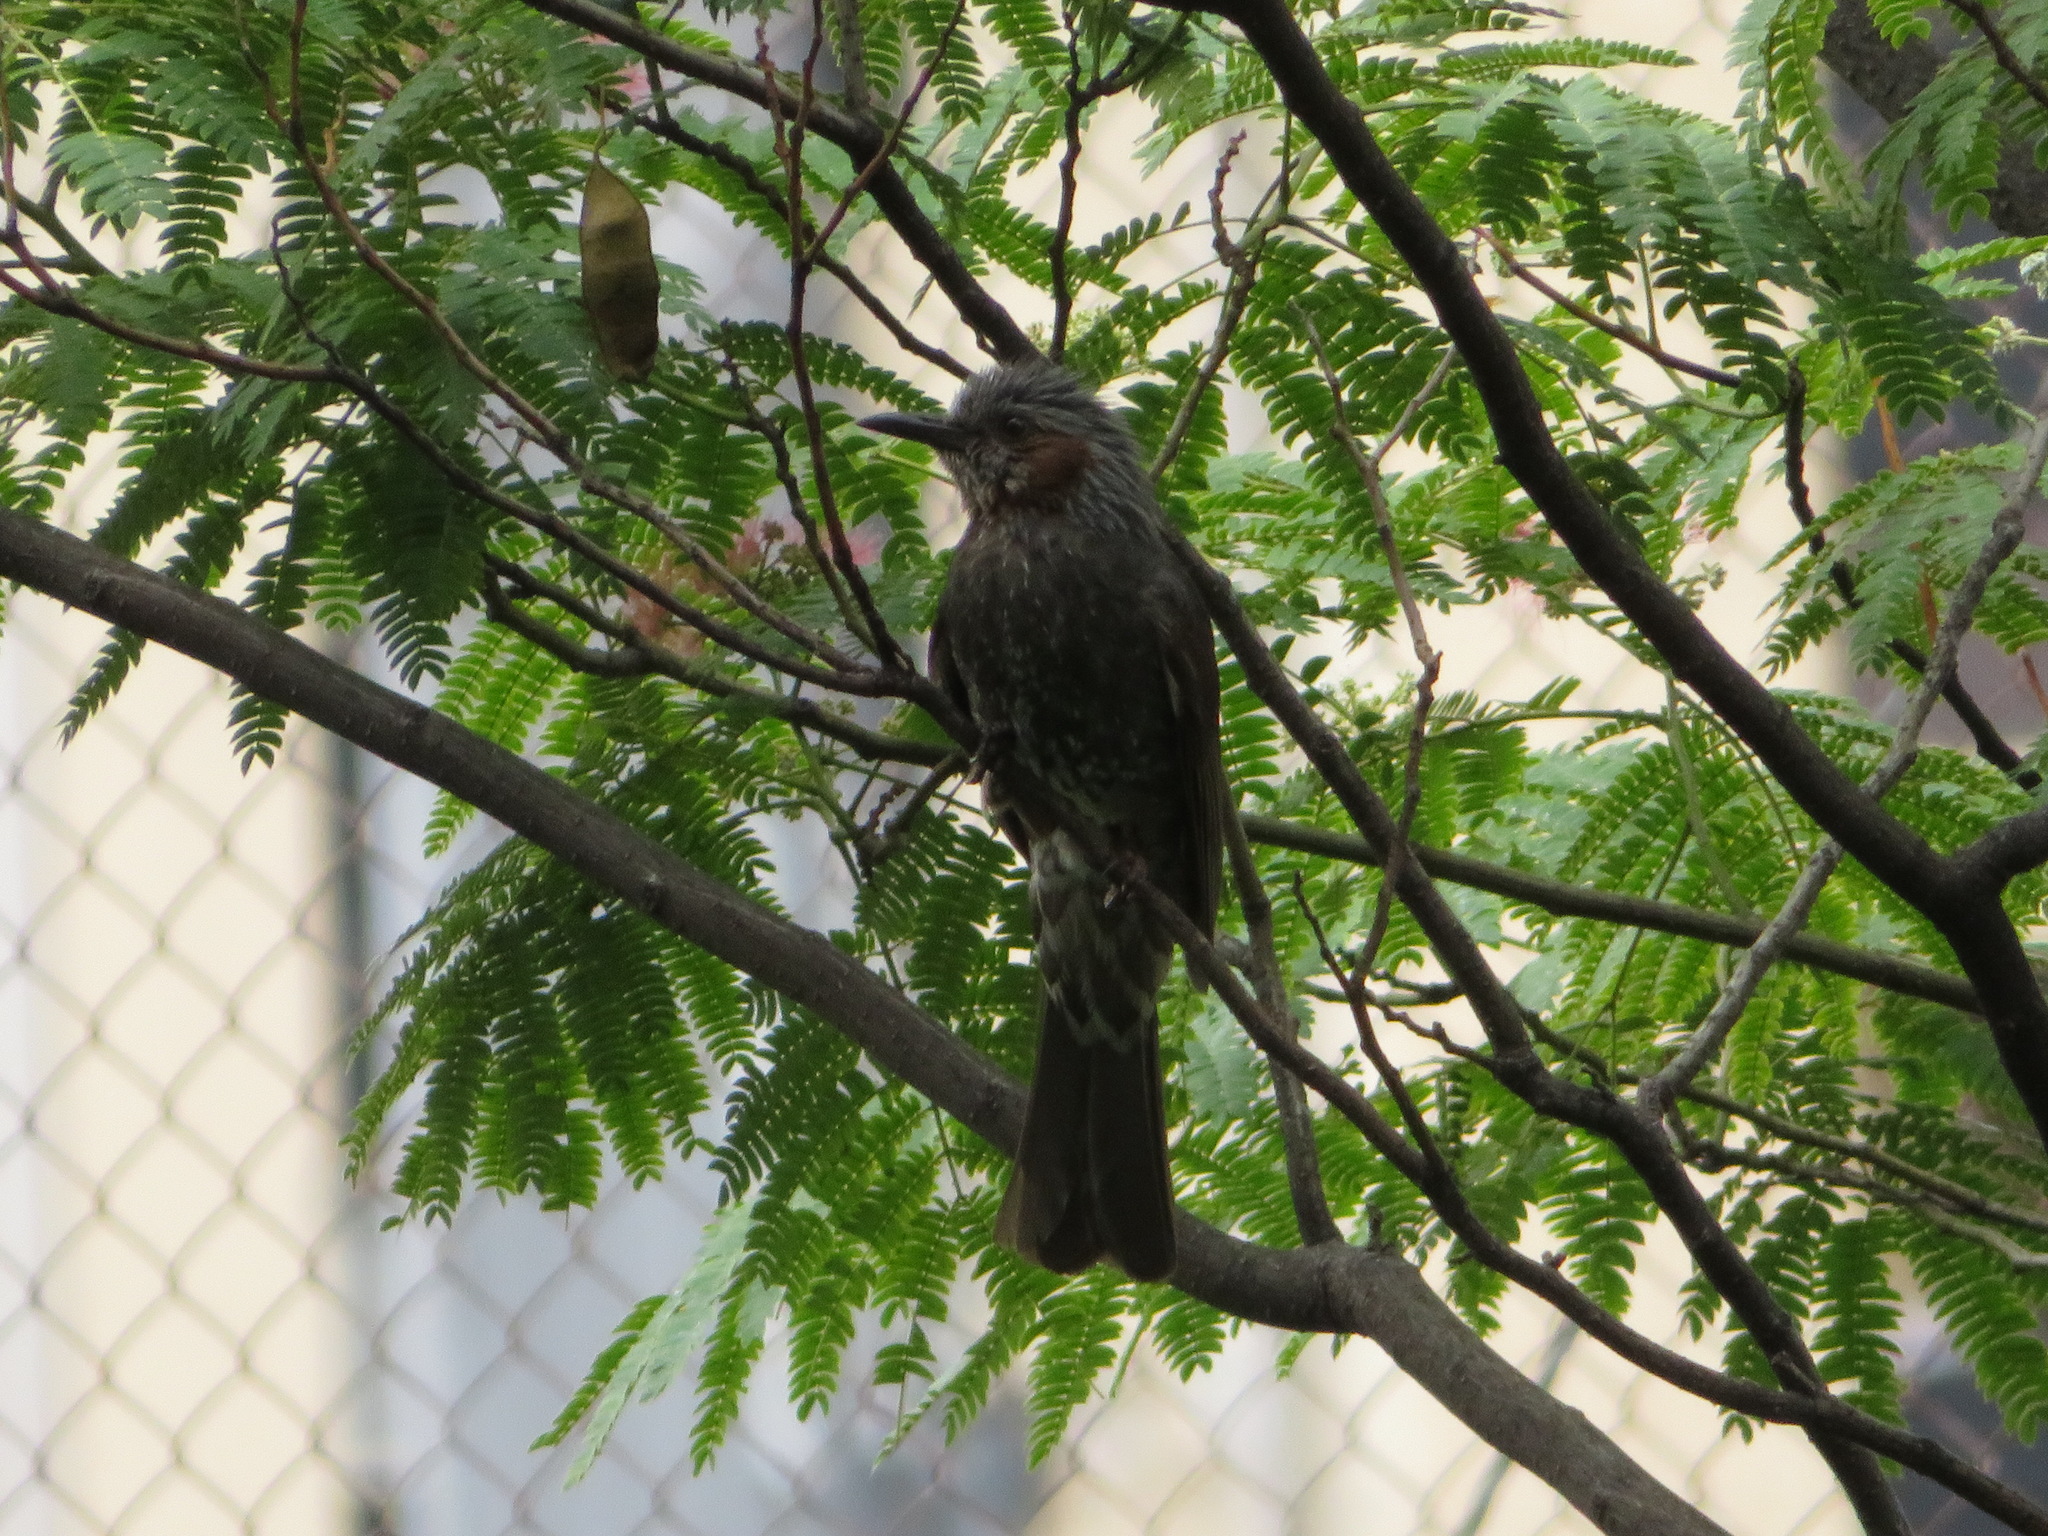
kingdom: Animalia
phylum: Chordata
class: Aves
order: Passeriformes
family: Pycnonotidae
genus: Hypsipetes
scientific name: Hypsipetes amaurotis
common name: Brown-eared bulbul
